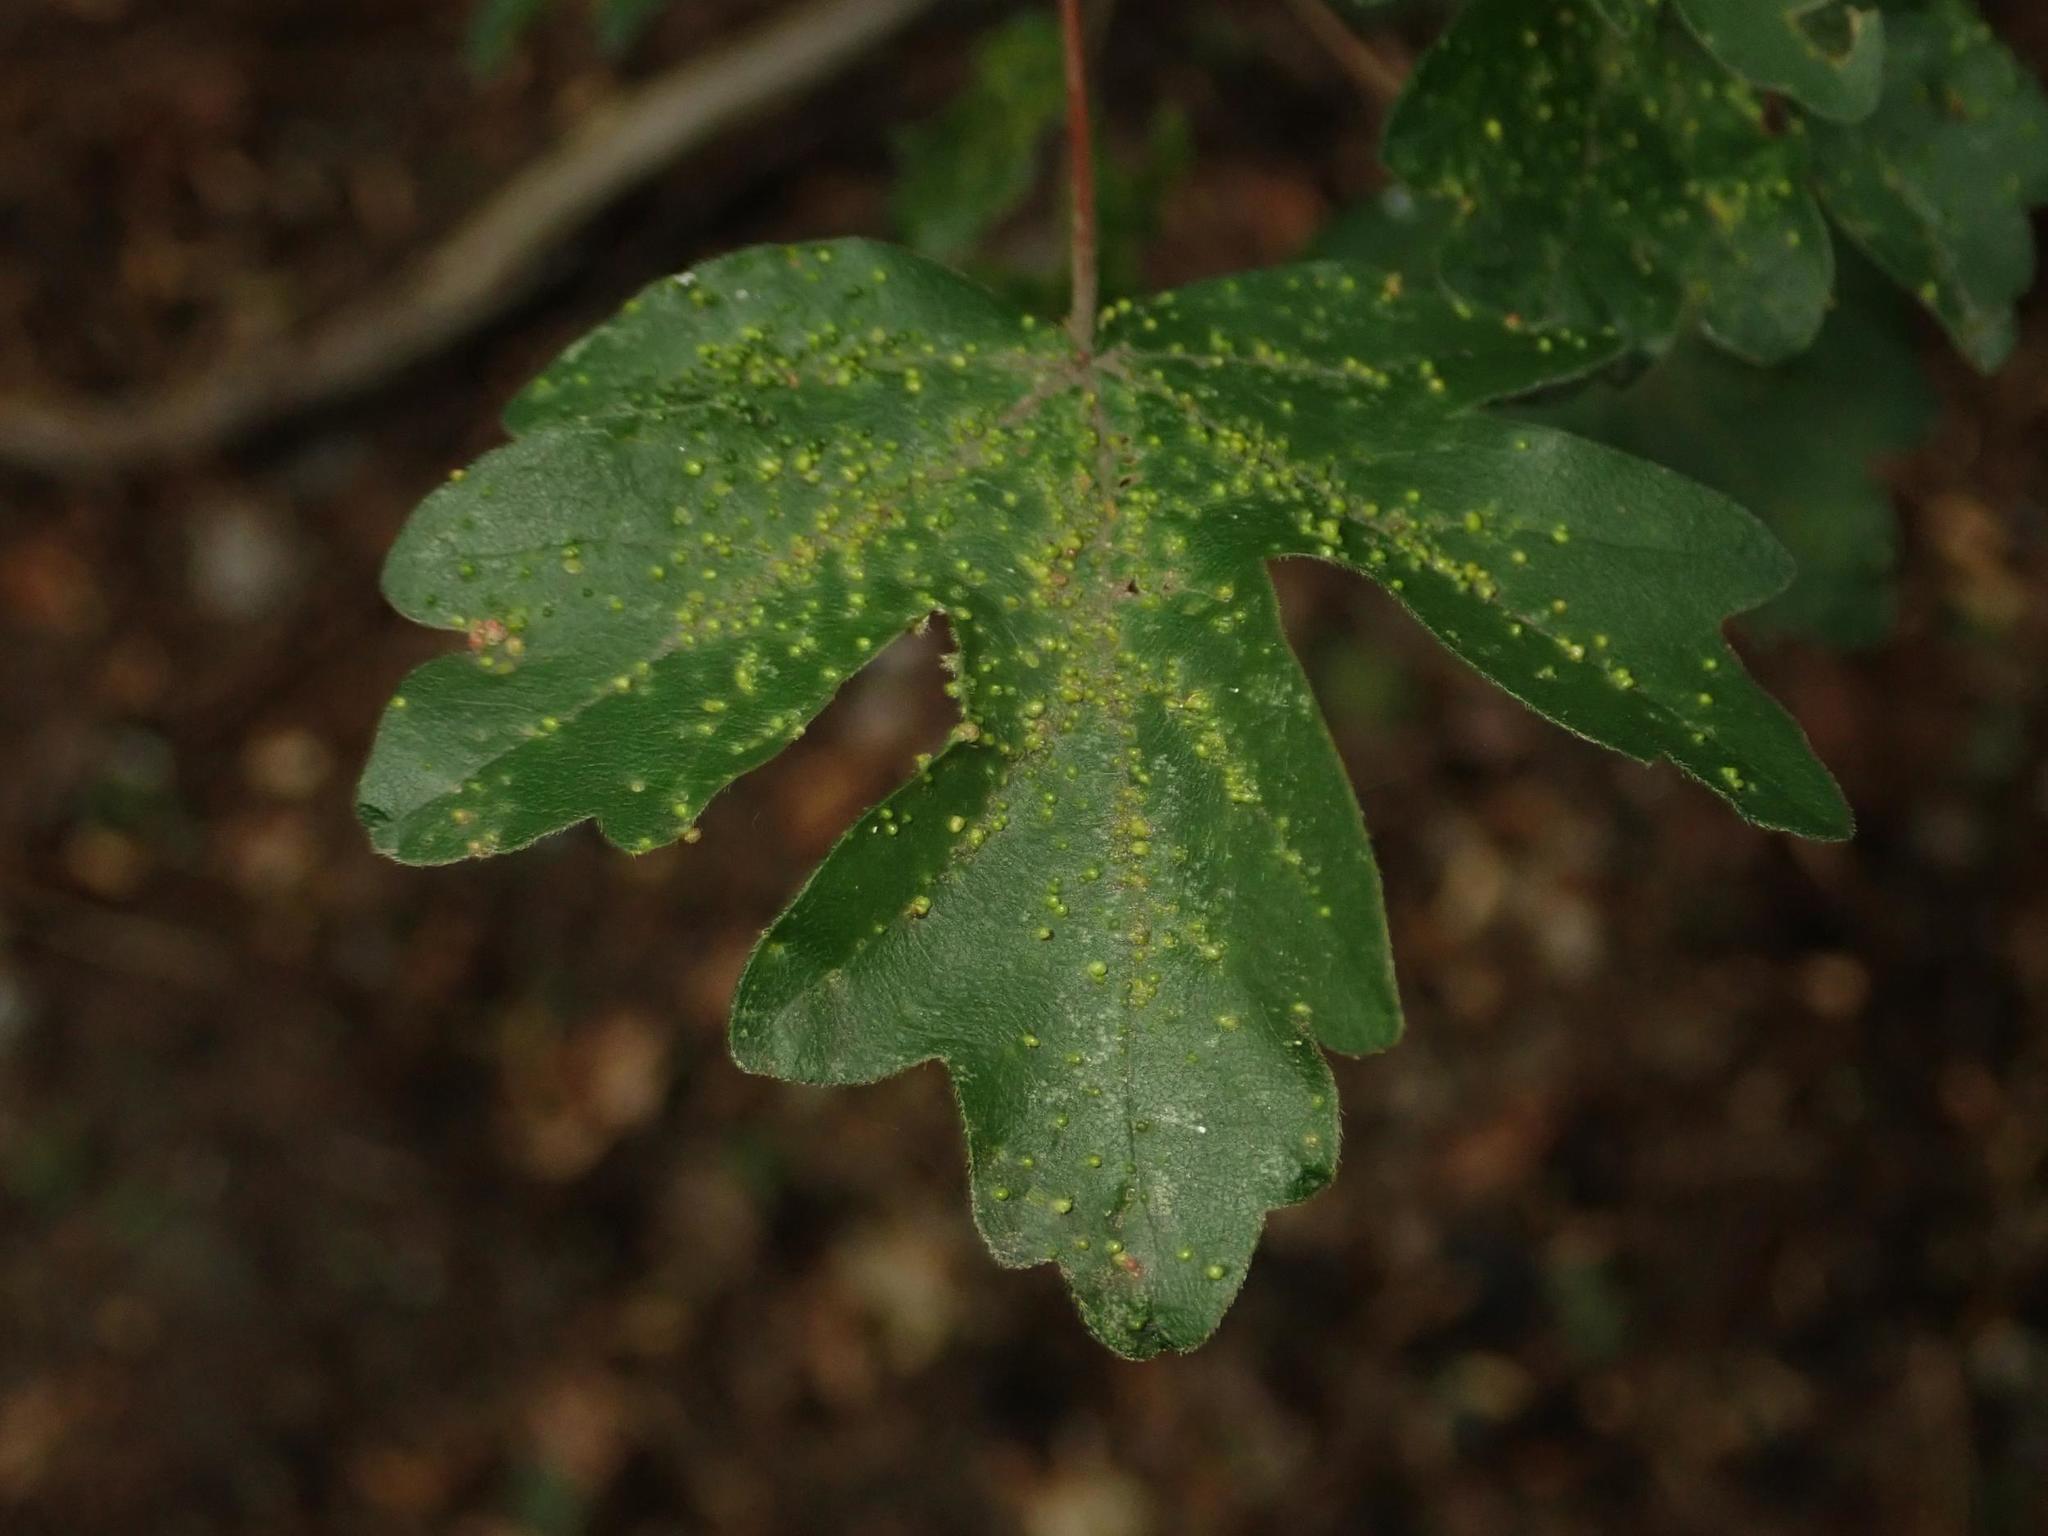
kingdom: Plantae
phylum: Tracheophyta
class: Magnoliopsida
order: Sapindales
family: Sapindaceae
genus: Acer
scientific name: Acer campestre
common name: Field maple
